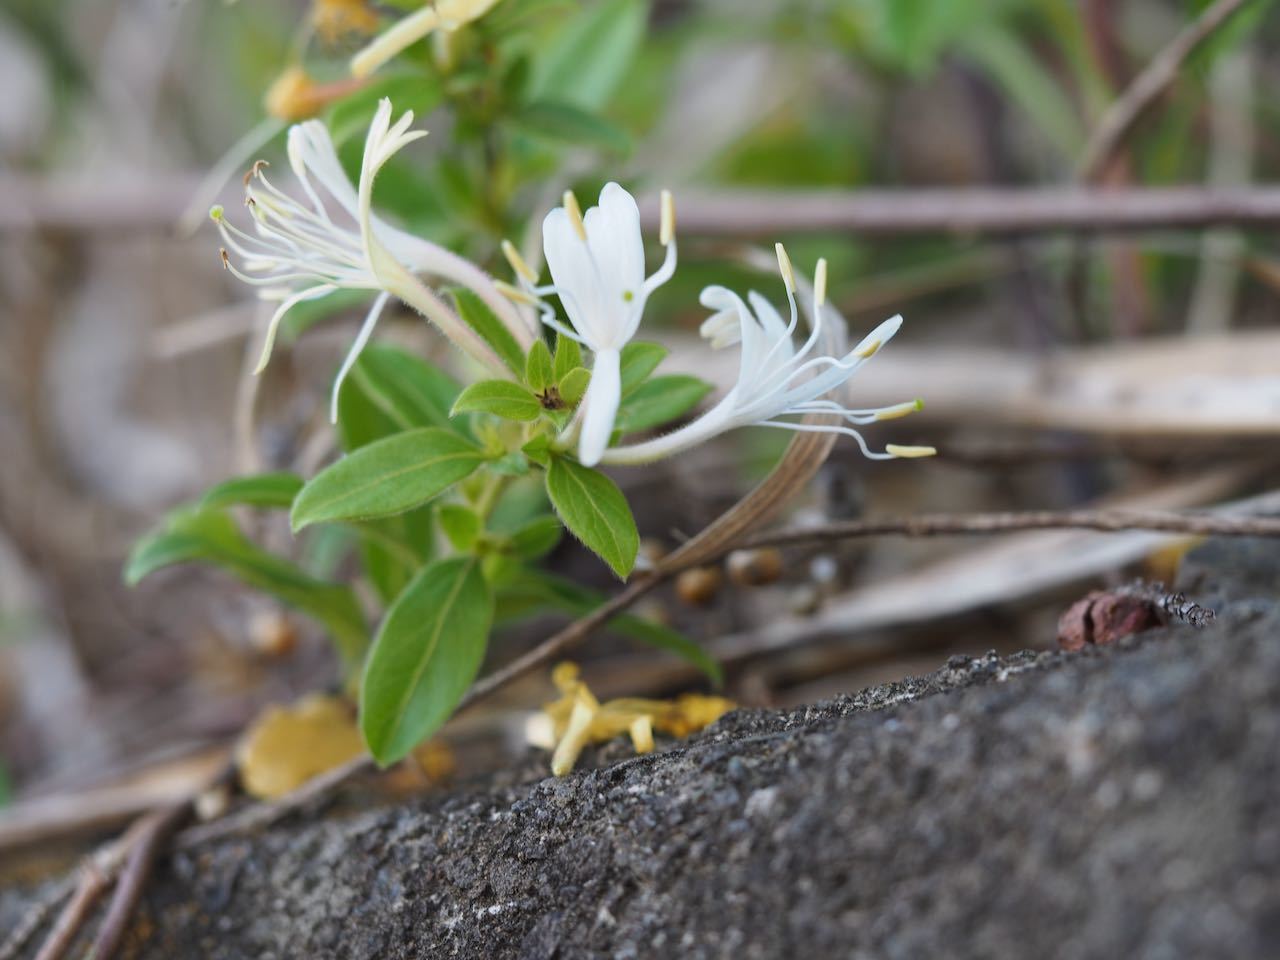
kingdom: Plantae
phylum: Tracheophyta
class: Magnoliopsida
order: Dipsacales
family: Caprifoliaceae
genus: Lonicera
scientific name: Lonicera japonica
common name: Japanese honeysuckle
